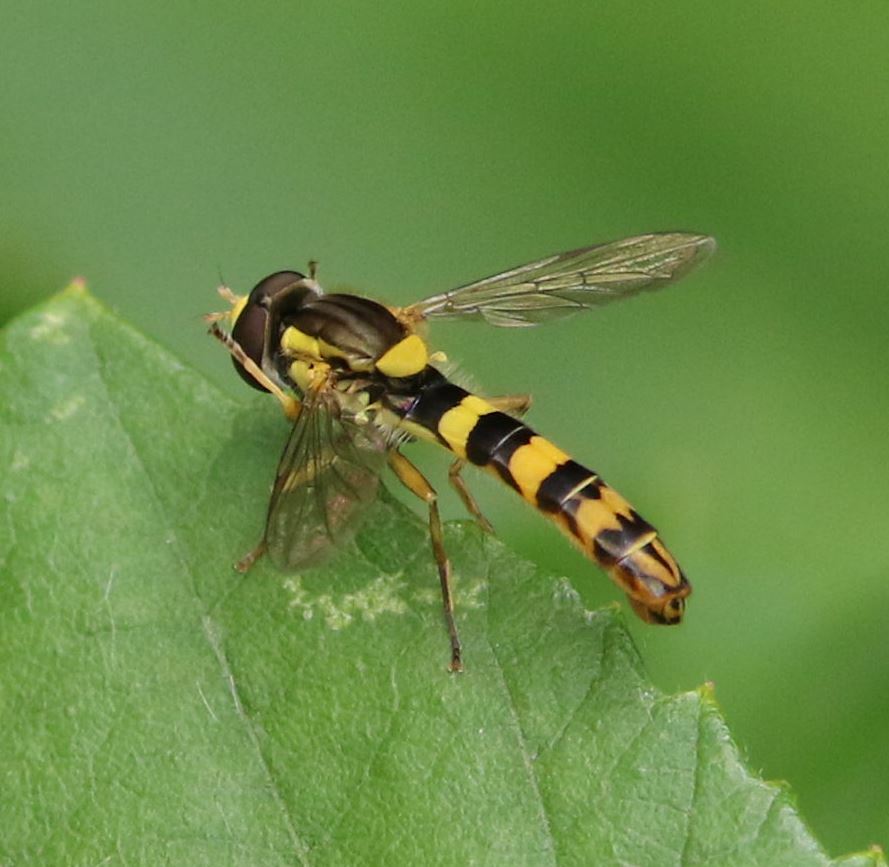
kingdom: Animalia
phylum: Arthropoda
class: Insecta
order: Diptera
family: Syrphidae
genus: Sphaerophoria
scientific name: Sphaerophoria scripta
